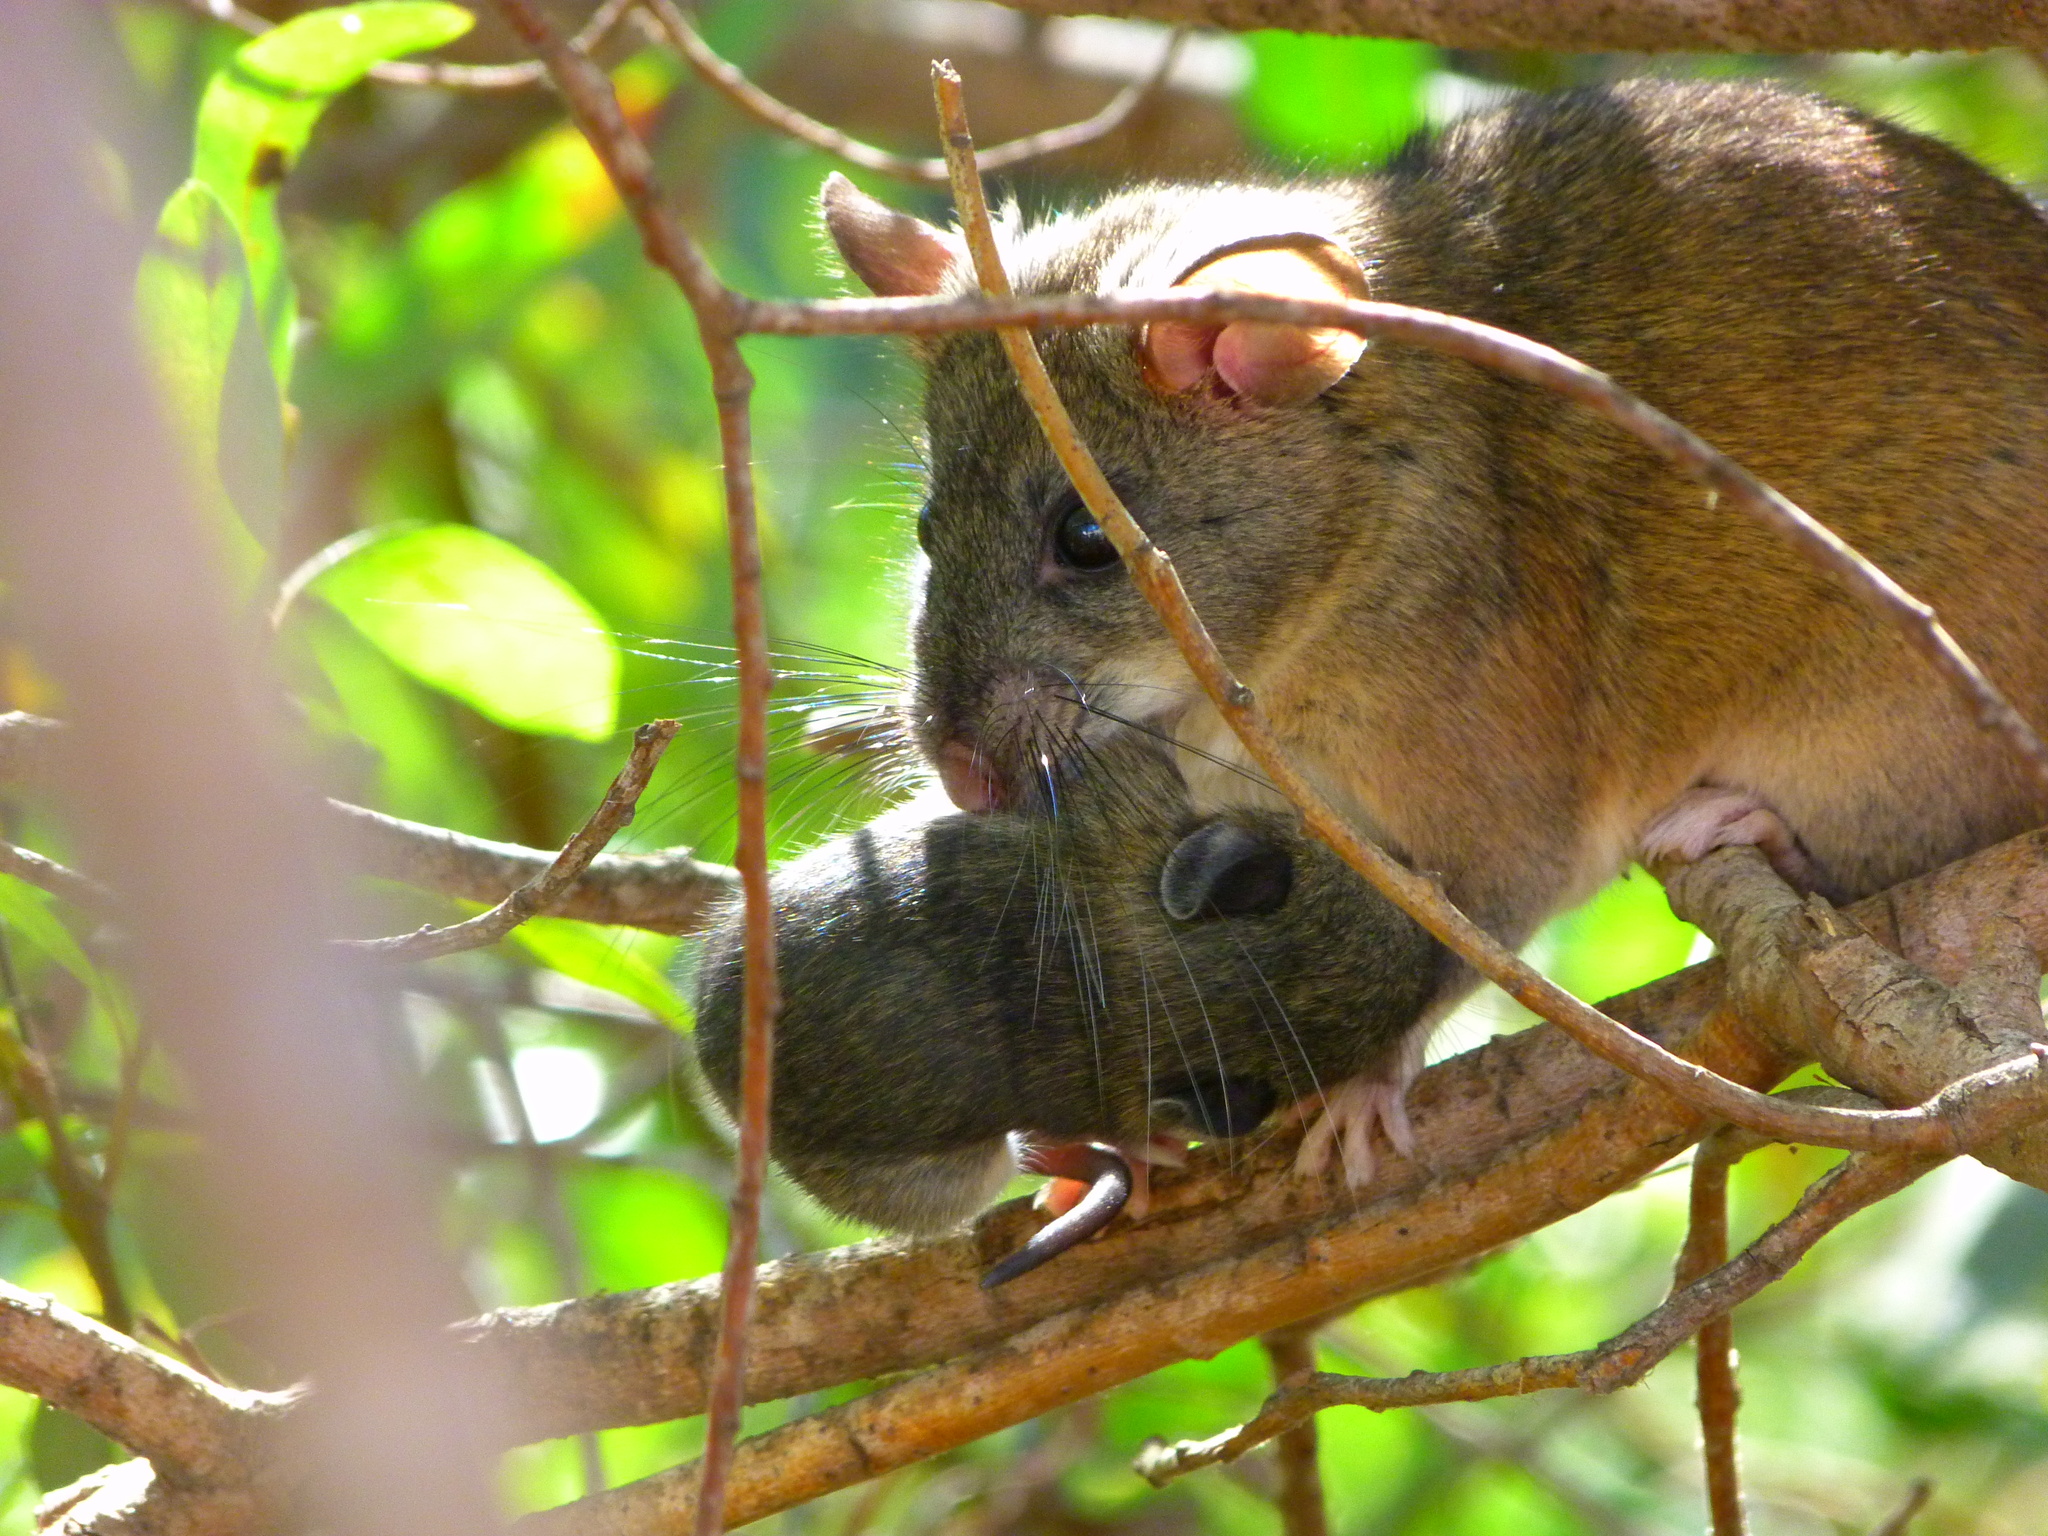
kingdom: Animalia
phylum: Chordata
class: Mammalia
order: Rodentia
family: Cricetidae
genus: Neotoma
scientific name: Neotoma macrotis
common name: Big-eared woodrat
